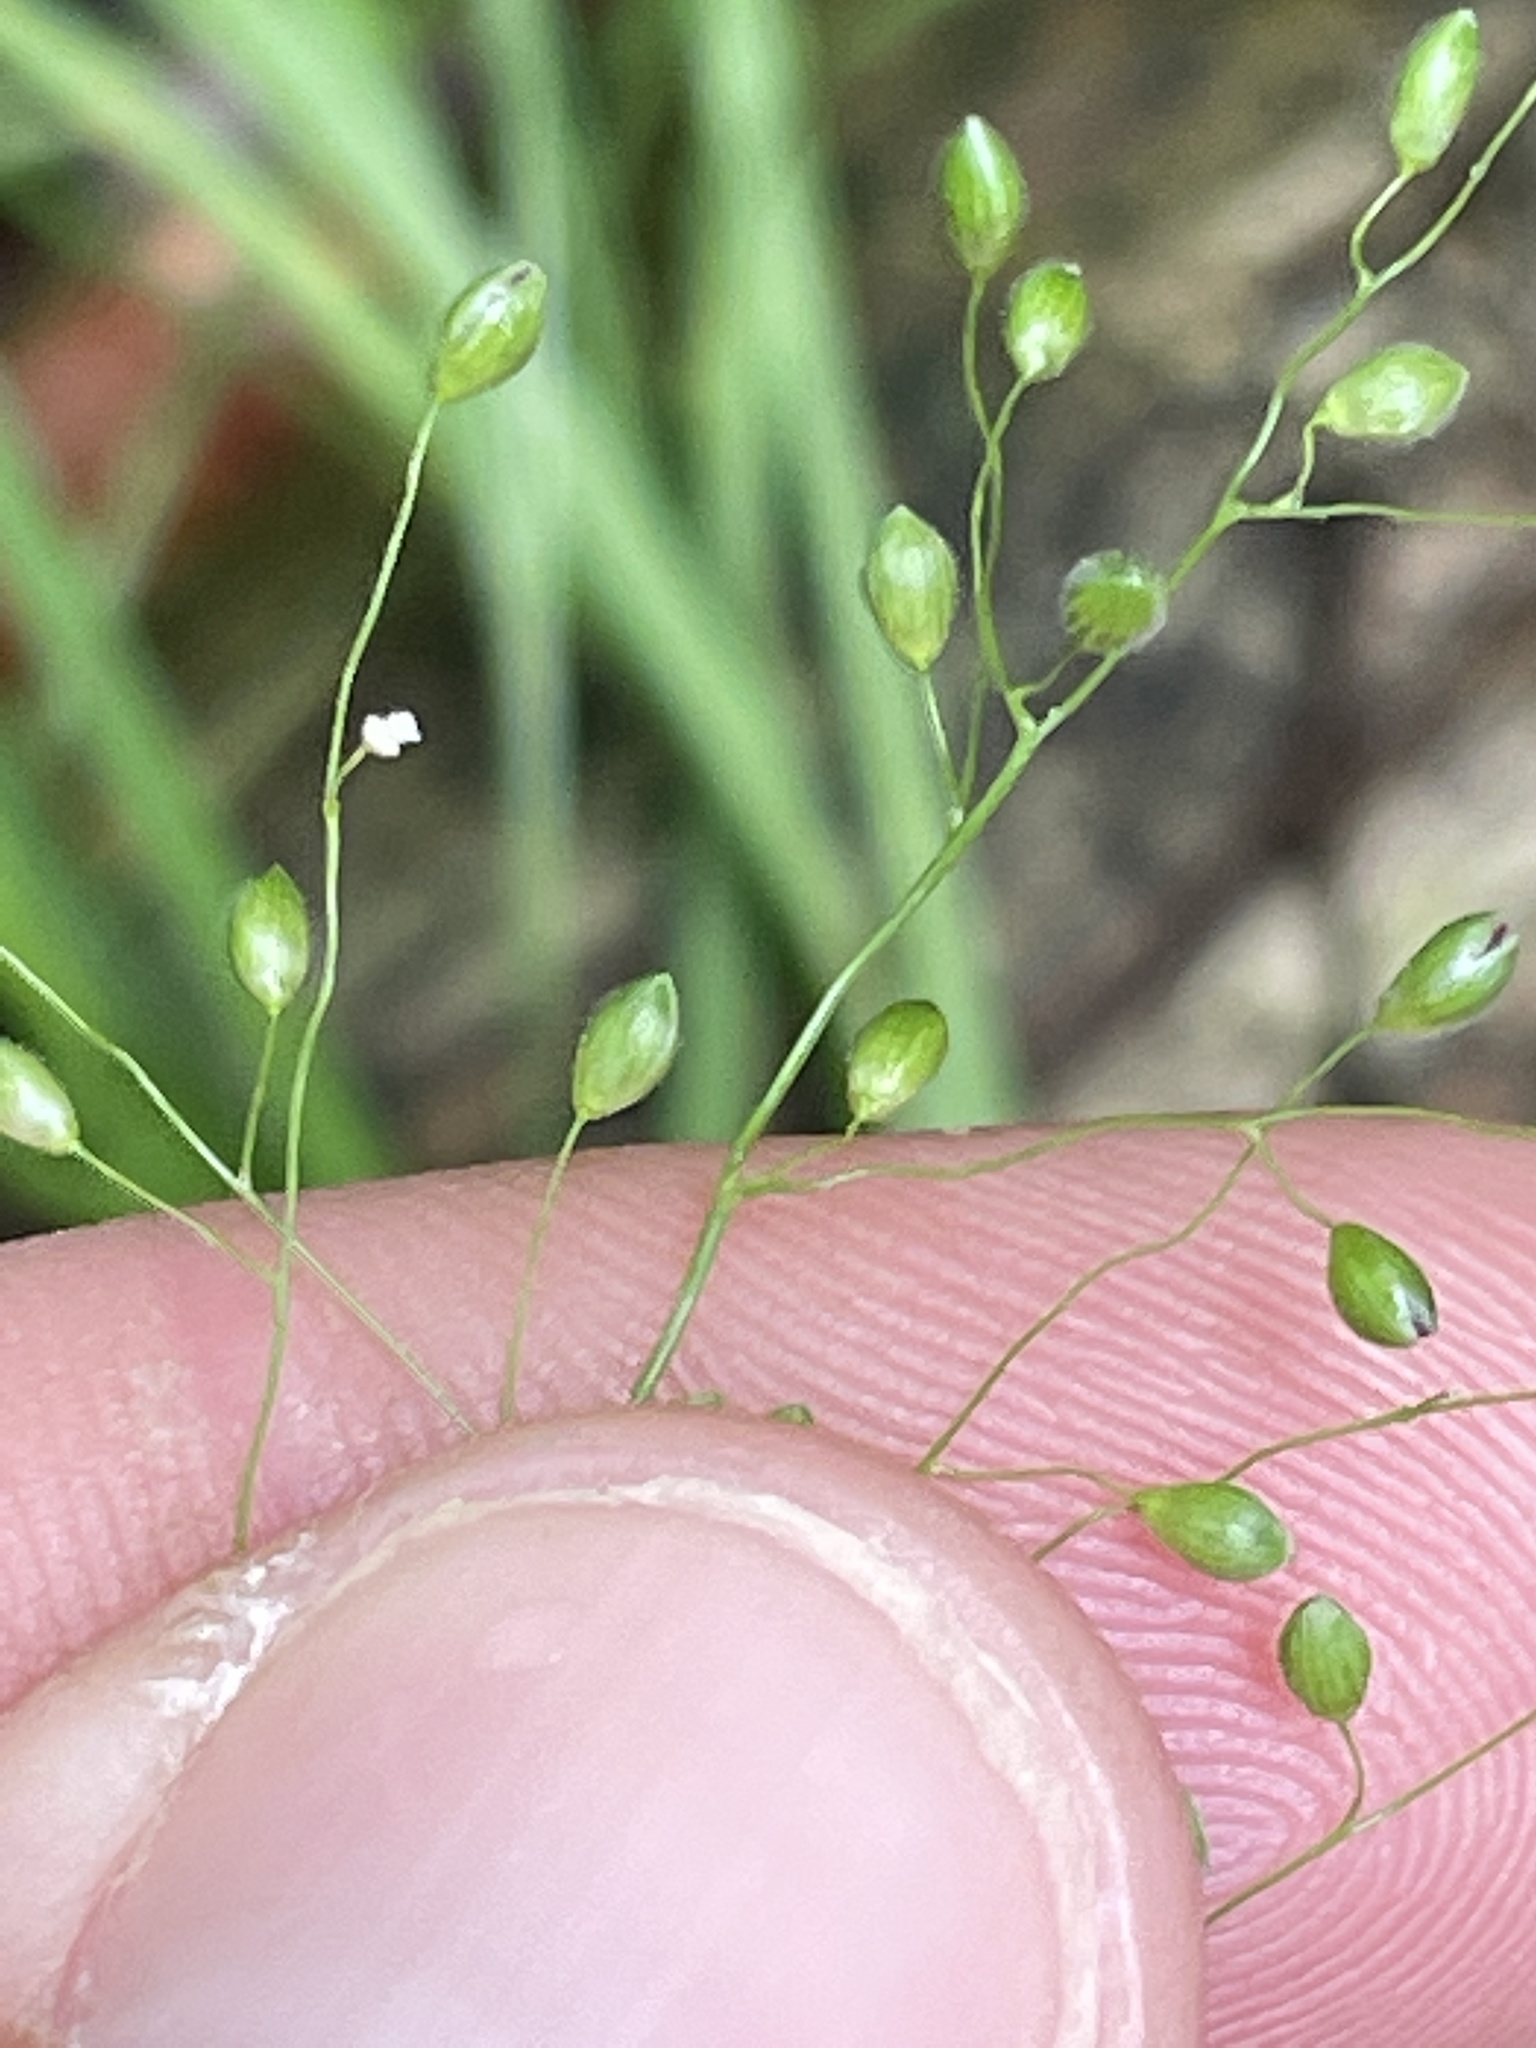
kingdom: Plantae
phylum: Tracheophyta
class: Liliopsida
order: Poales
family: Poaceae
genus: Dichanthelium
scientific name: Dichanthelium latifolium
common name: Broad-leaved panicgrass
